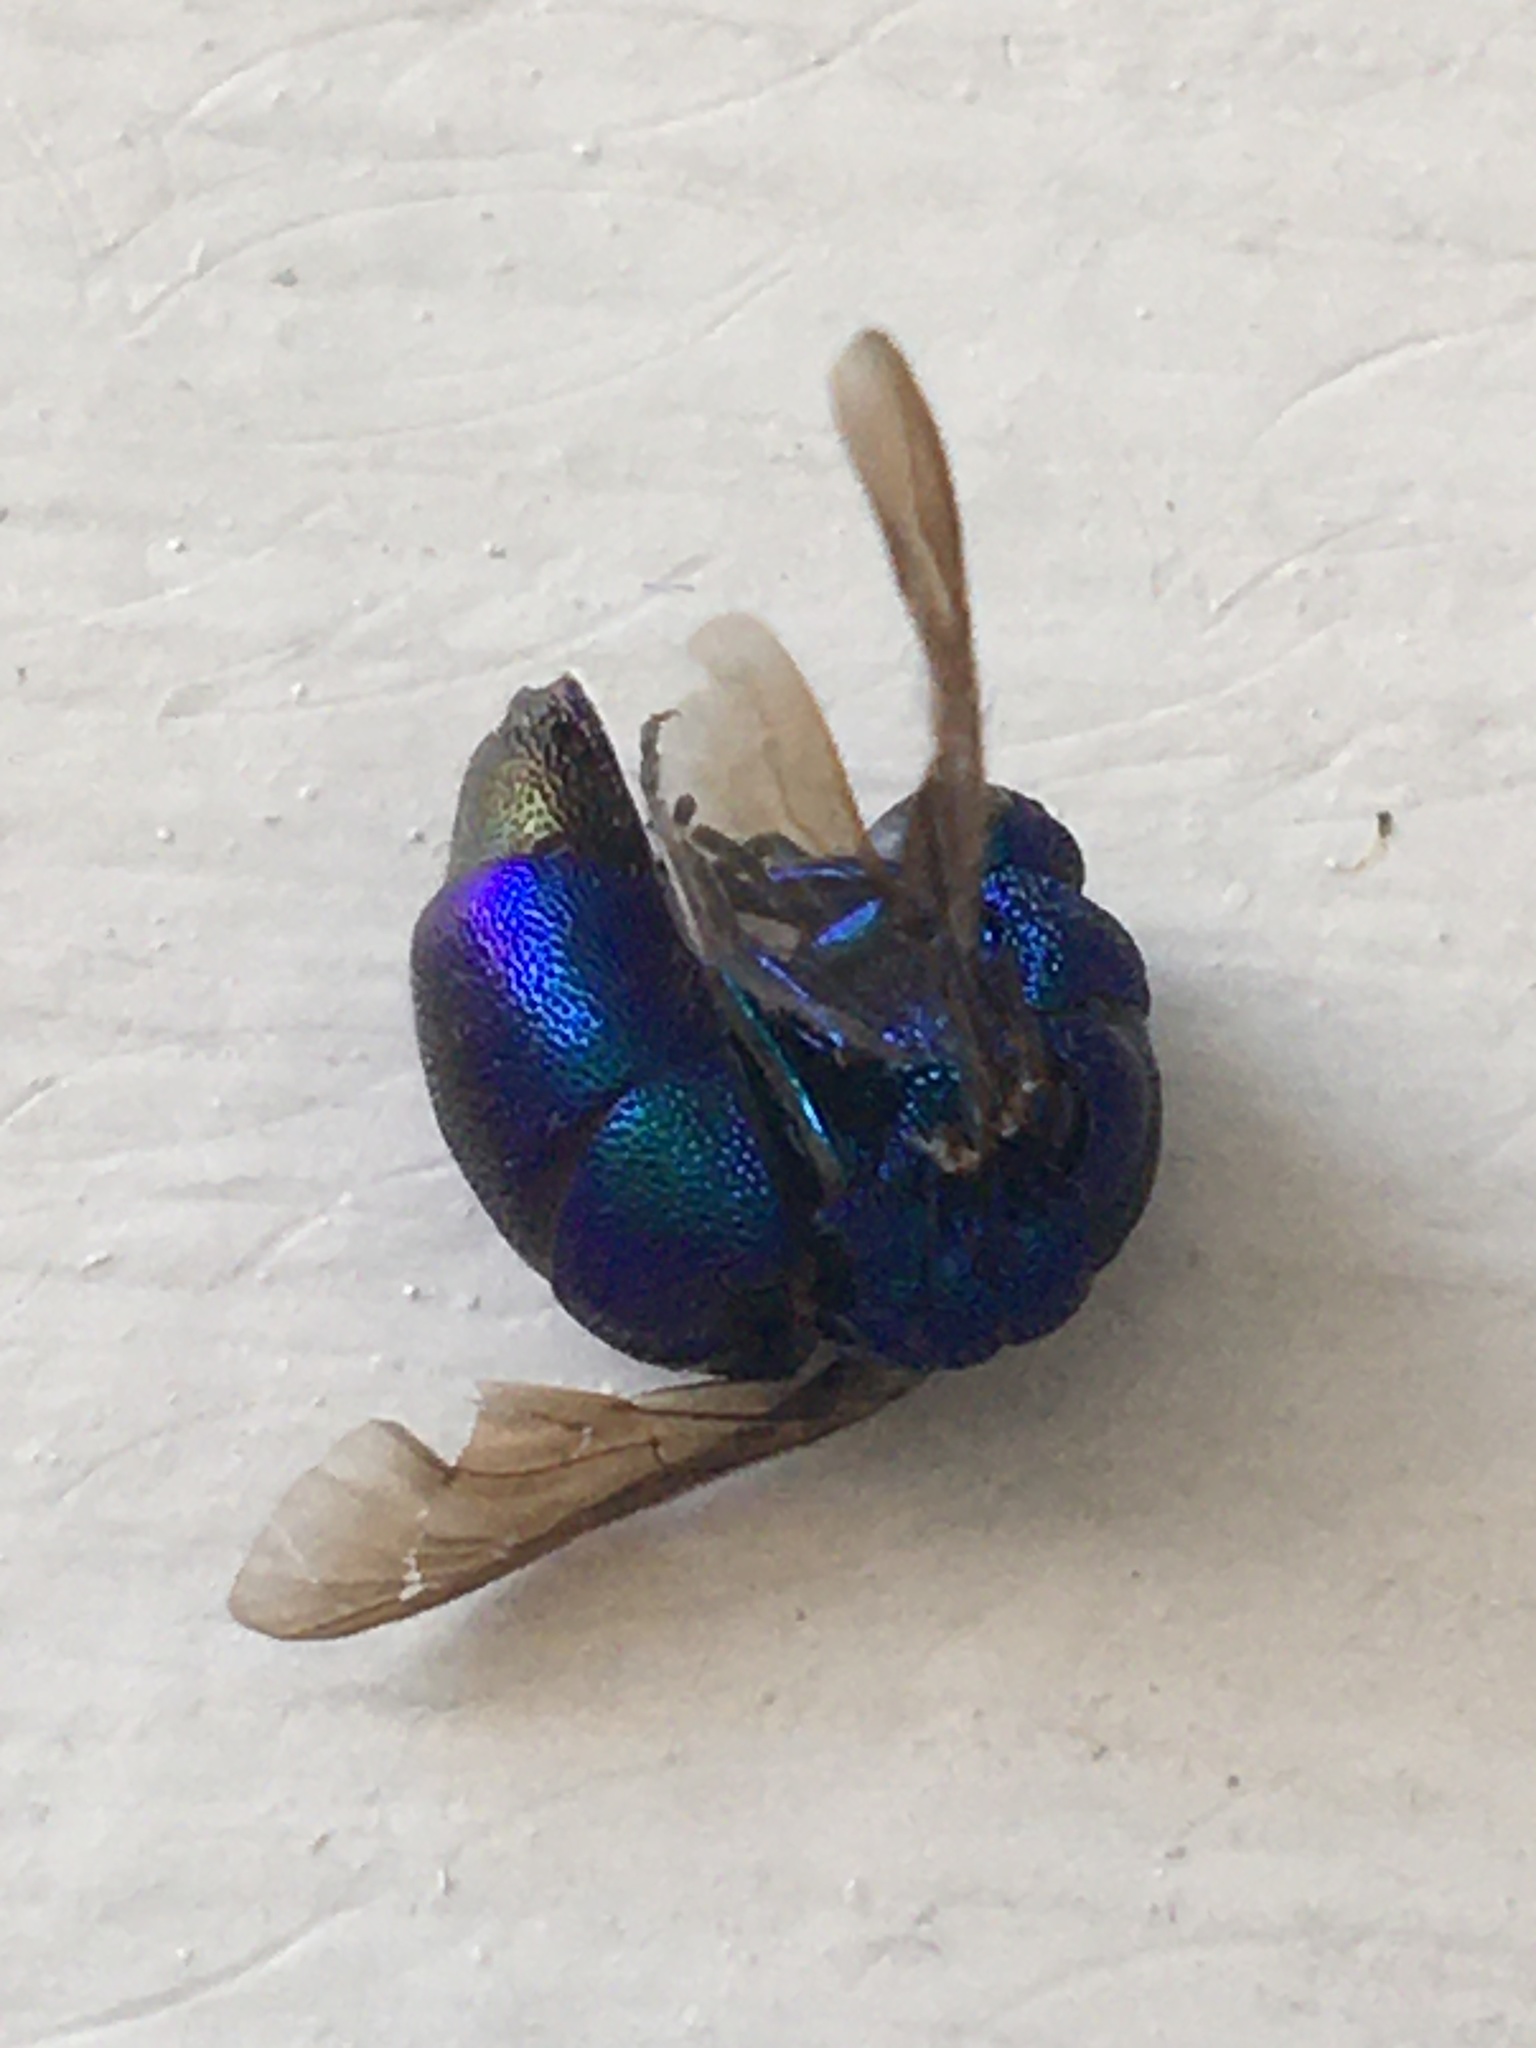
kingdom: Animalia
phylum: Arthropoda
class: Insecta
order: Hymenoptera
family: Chrysididae
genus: Chrysis
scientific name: Chrysis angolensis
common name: Cuckoo wasp
